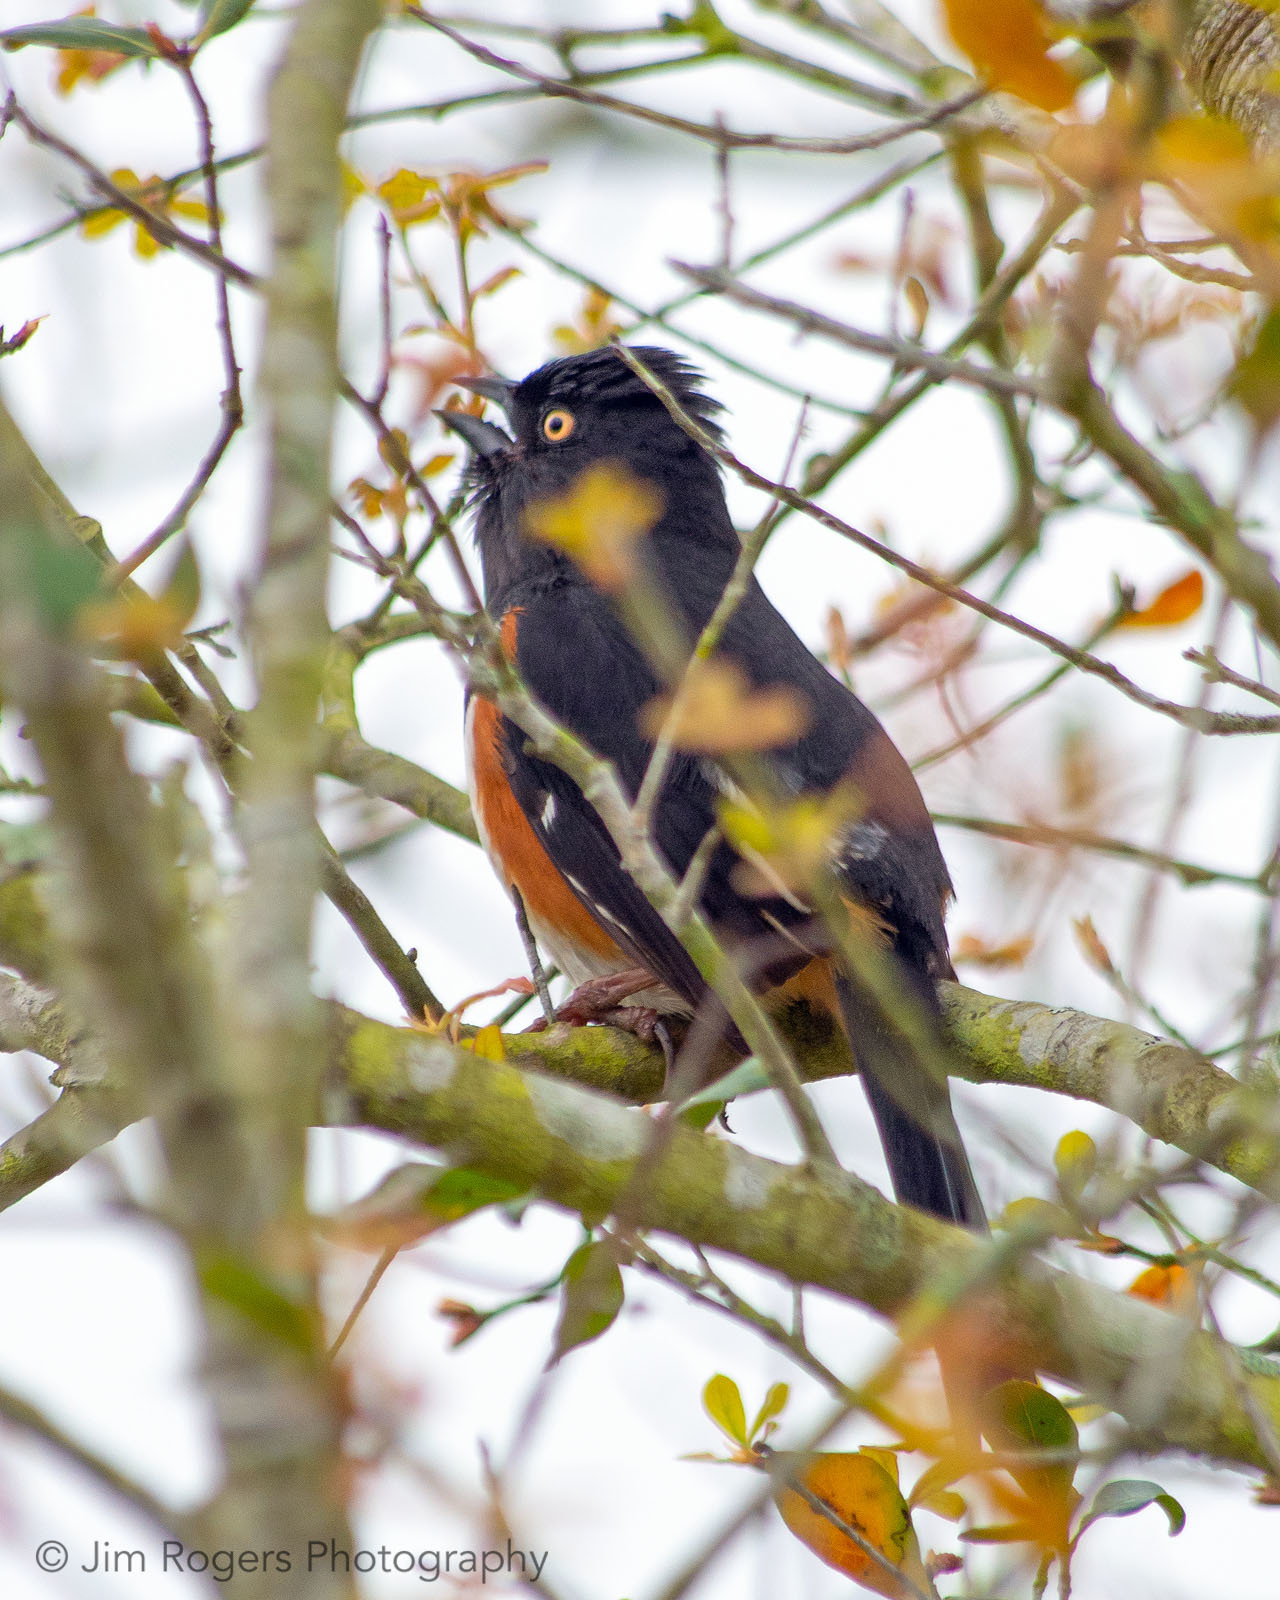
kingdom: Animalia
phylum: Chordata
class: Aves
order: Passeriformes
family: Passerellidae
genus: Pipilo
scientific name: Pipilo erythrophthalmus
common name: Eastern towhee
